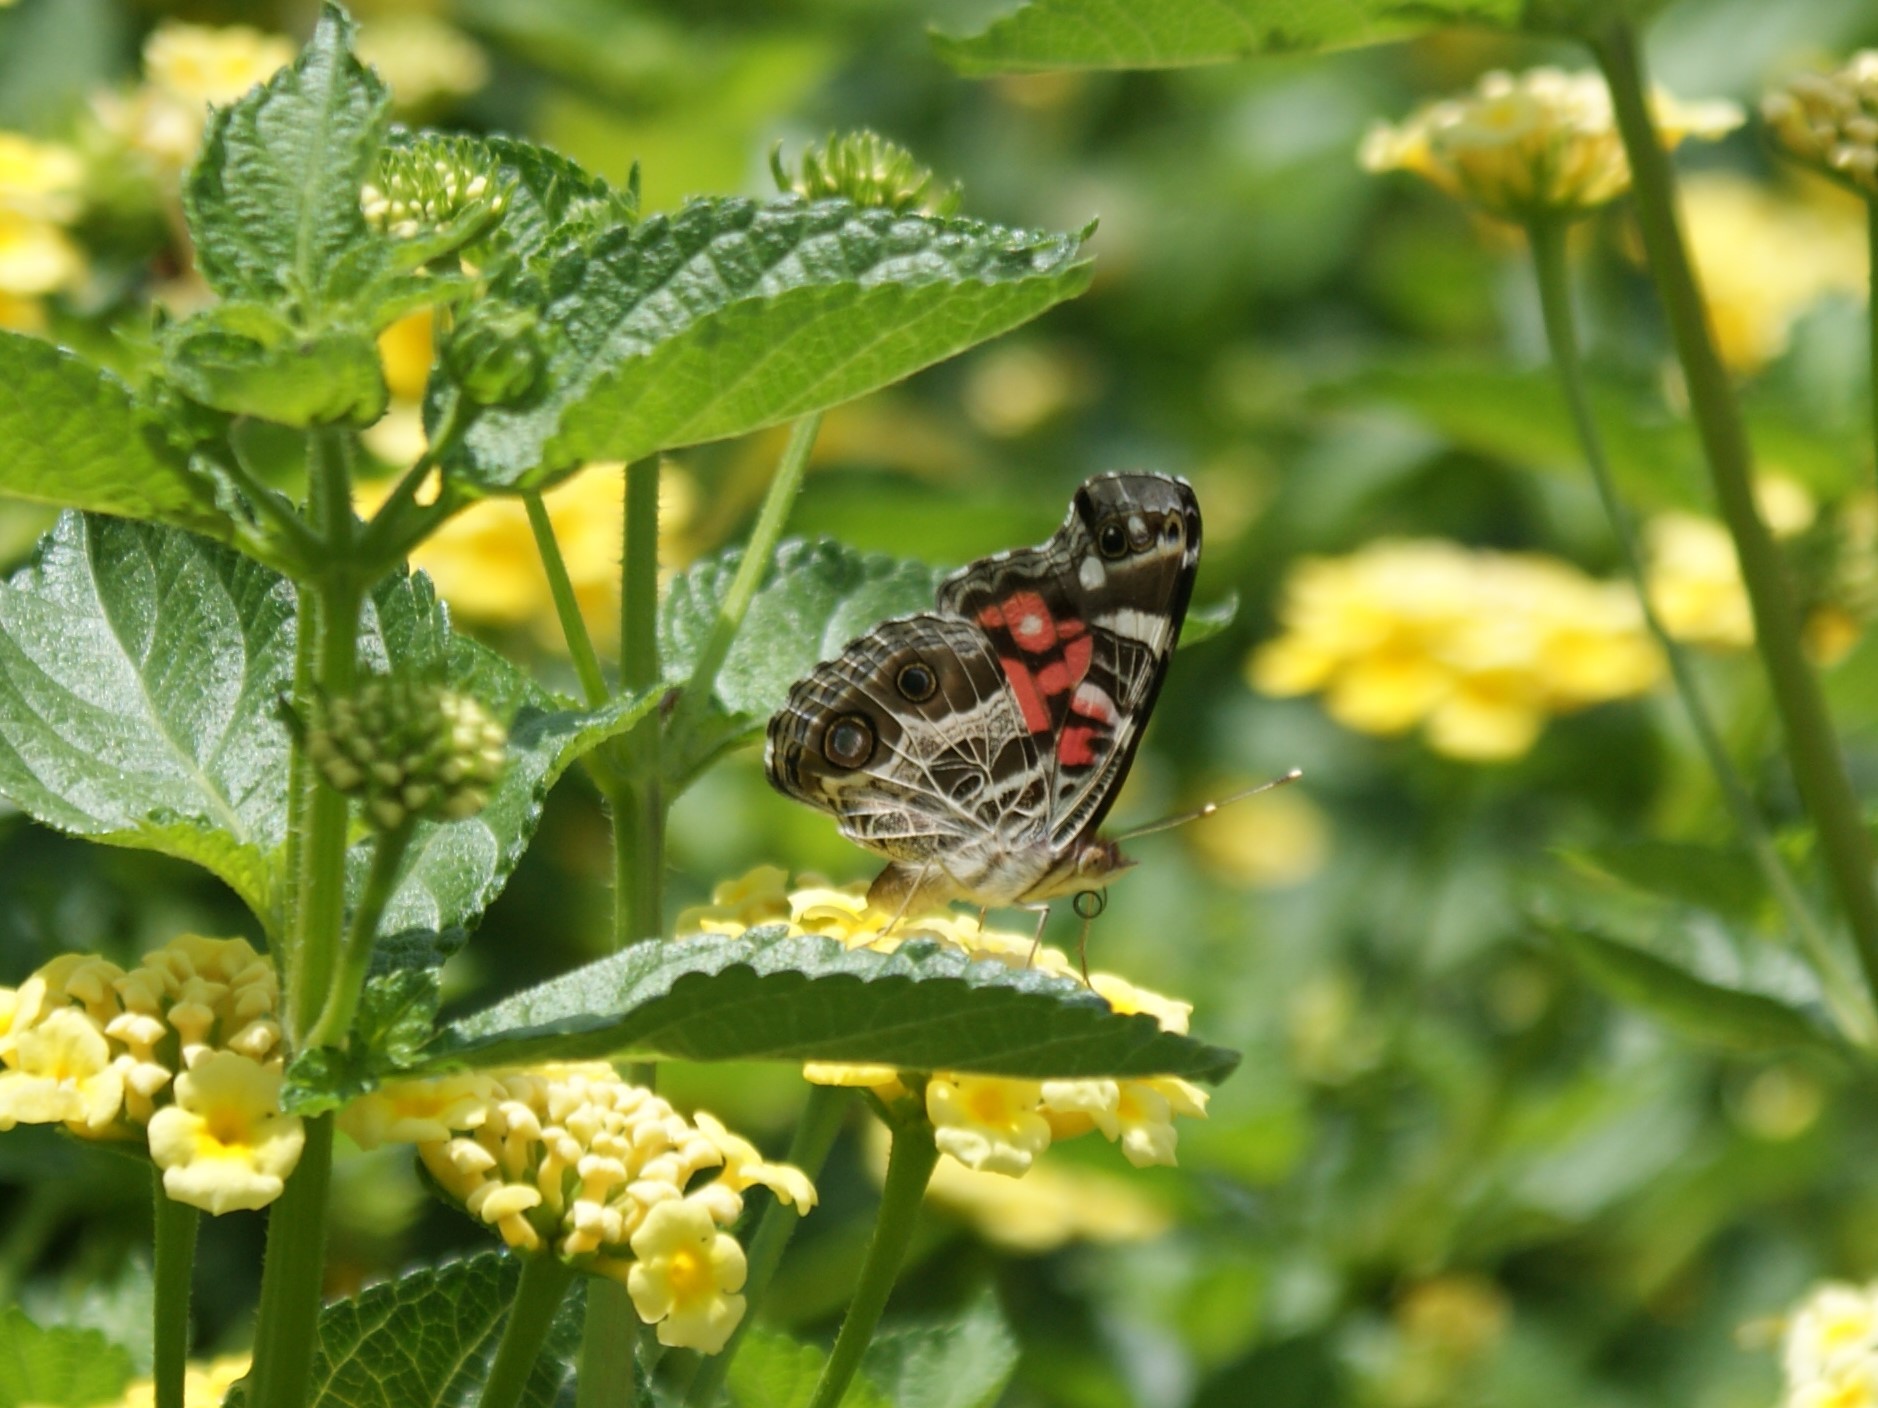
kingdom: Animalia
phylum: Arthropoda
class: Insecta
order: Lepidoptera
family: Nymphalidae
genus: Vanessa
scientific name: Vanessa virginiensis
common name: American lady
